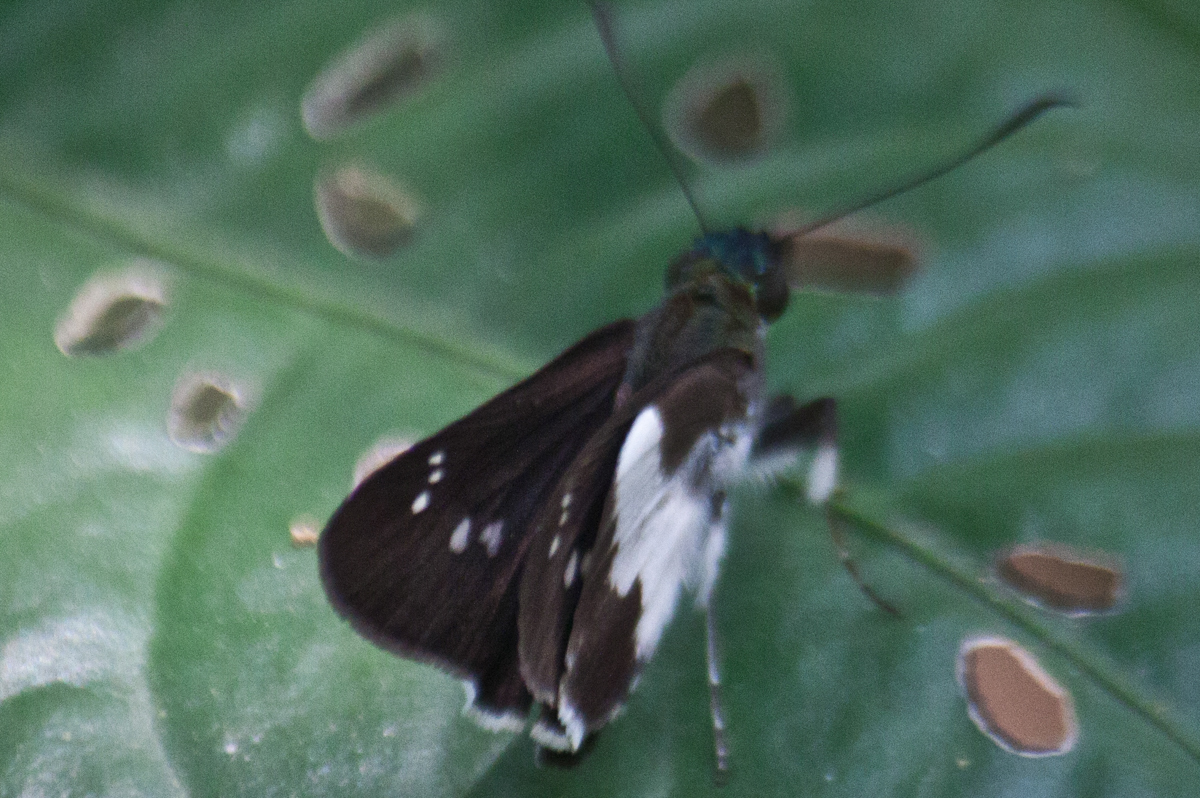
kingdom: Animalia
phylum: Arthropoda
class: Insecta
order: Lepidoptera
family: Hesperiidae
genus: Acerbas
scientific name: Acerbas anthea
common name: White palmer
